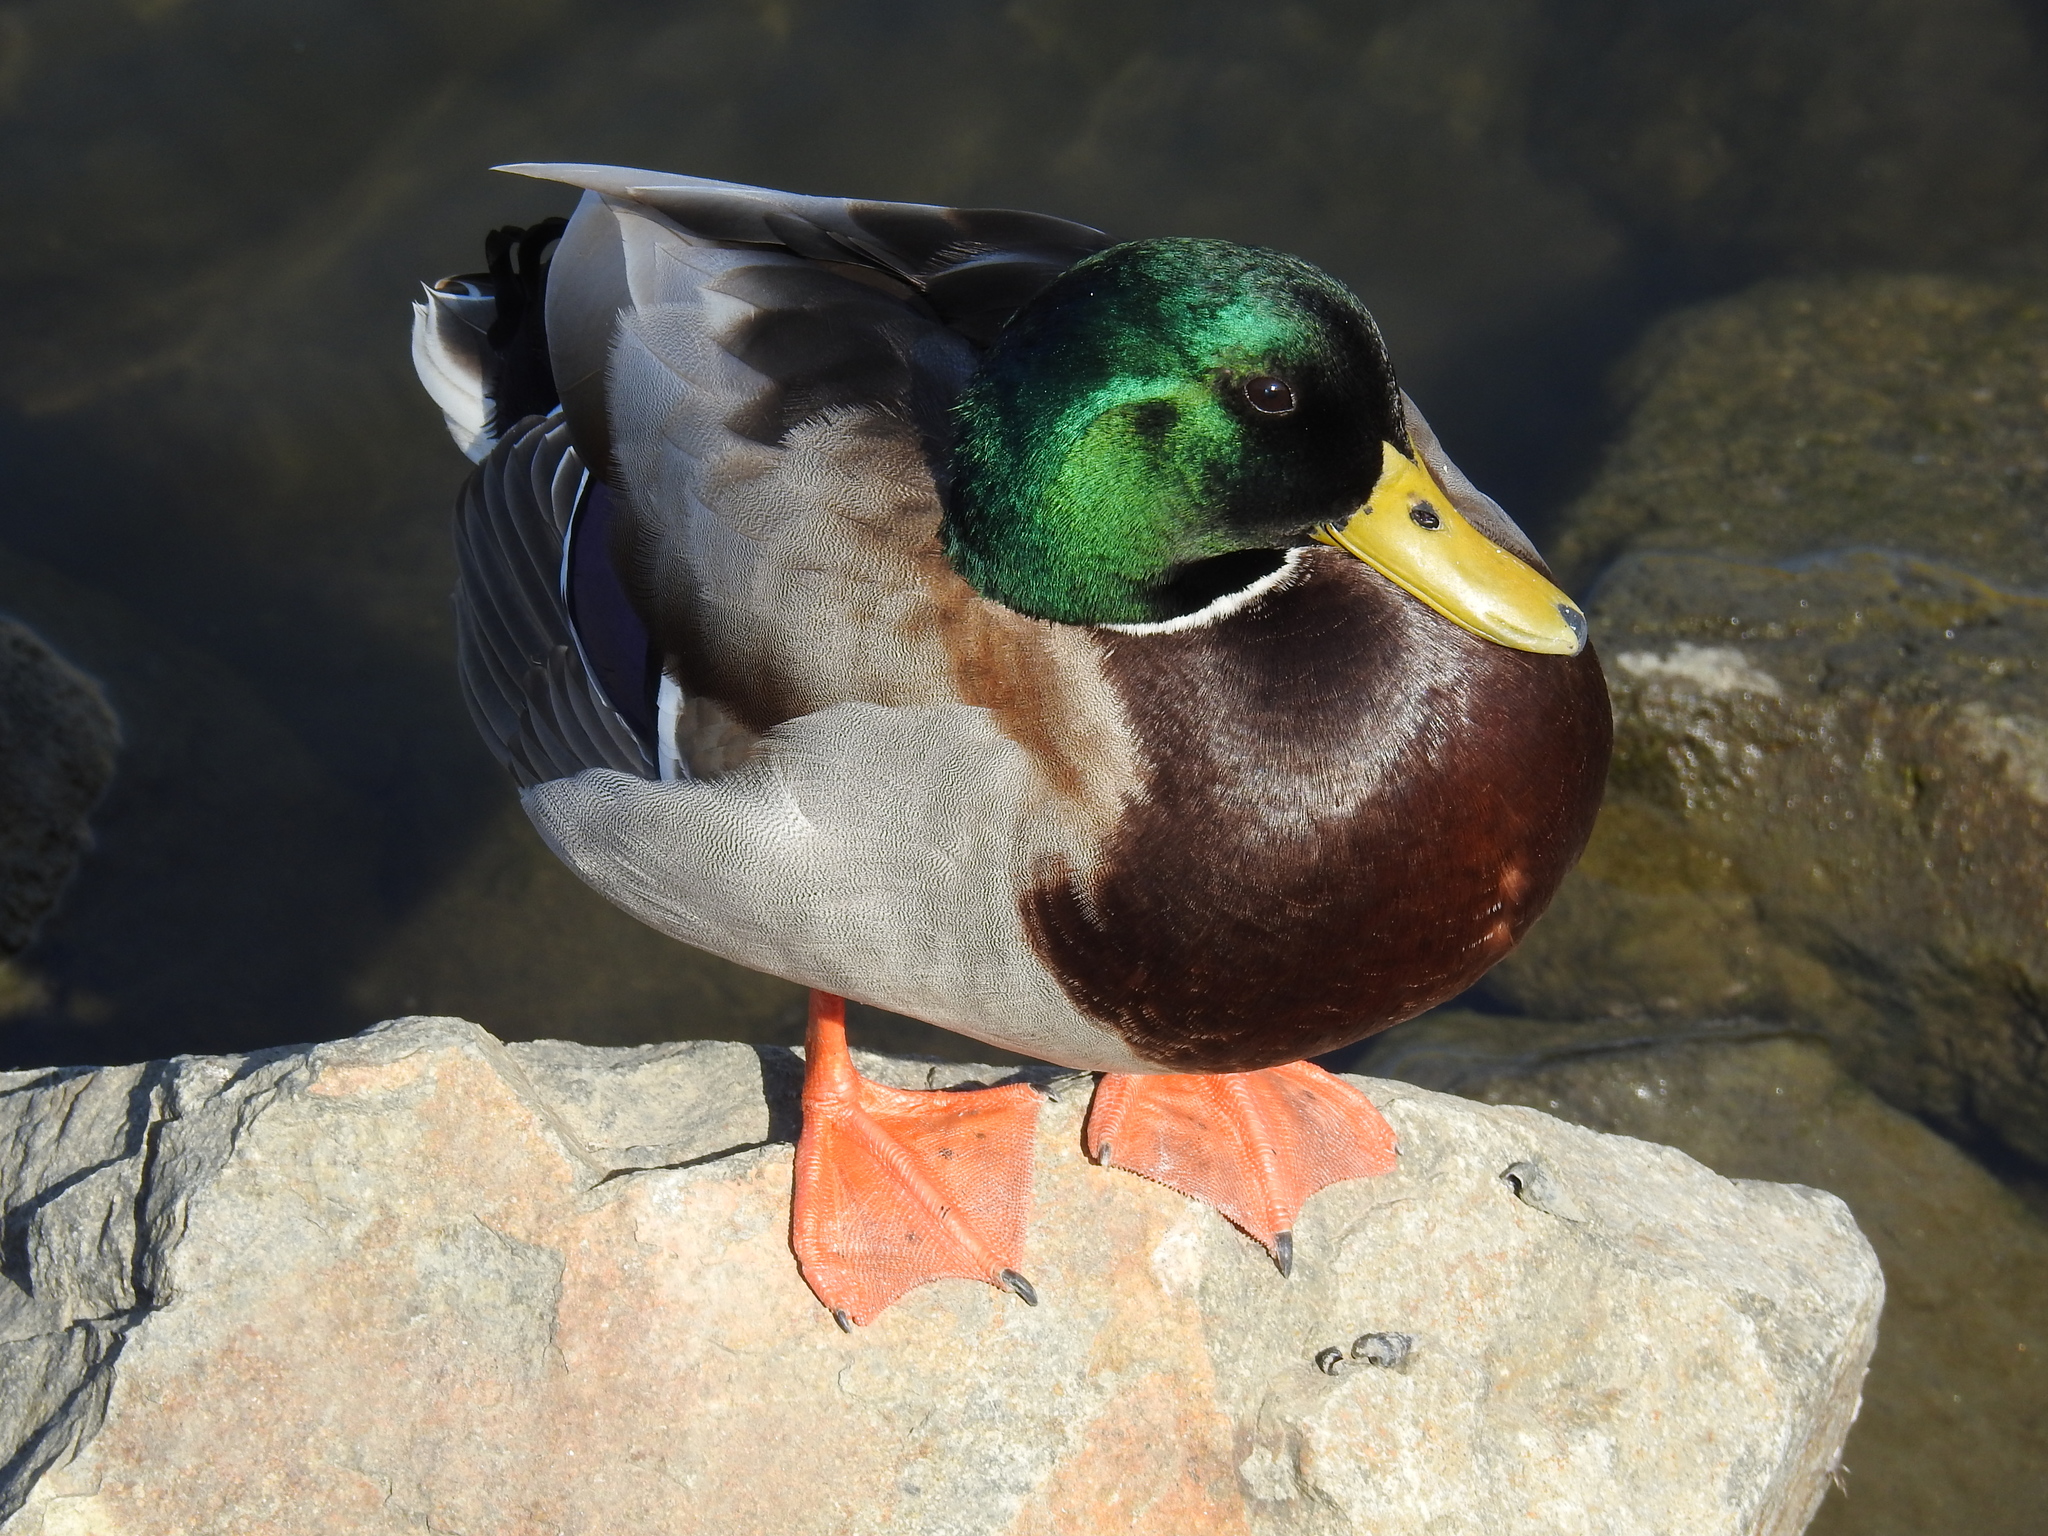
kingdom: Animalia
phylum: Chordata
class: Aves
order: Anseriformes
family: Anatidae
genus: Anas
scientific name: Anas platyrhynchos
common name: Mallard
